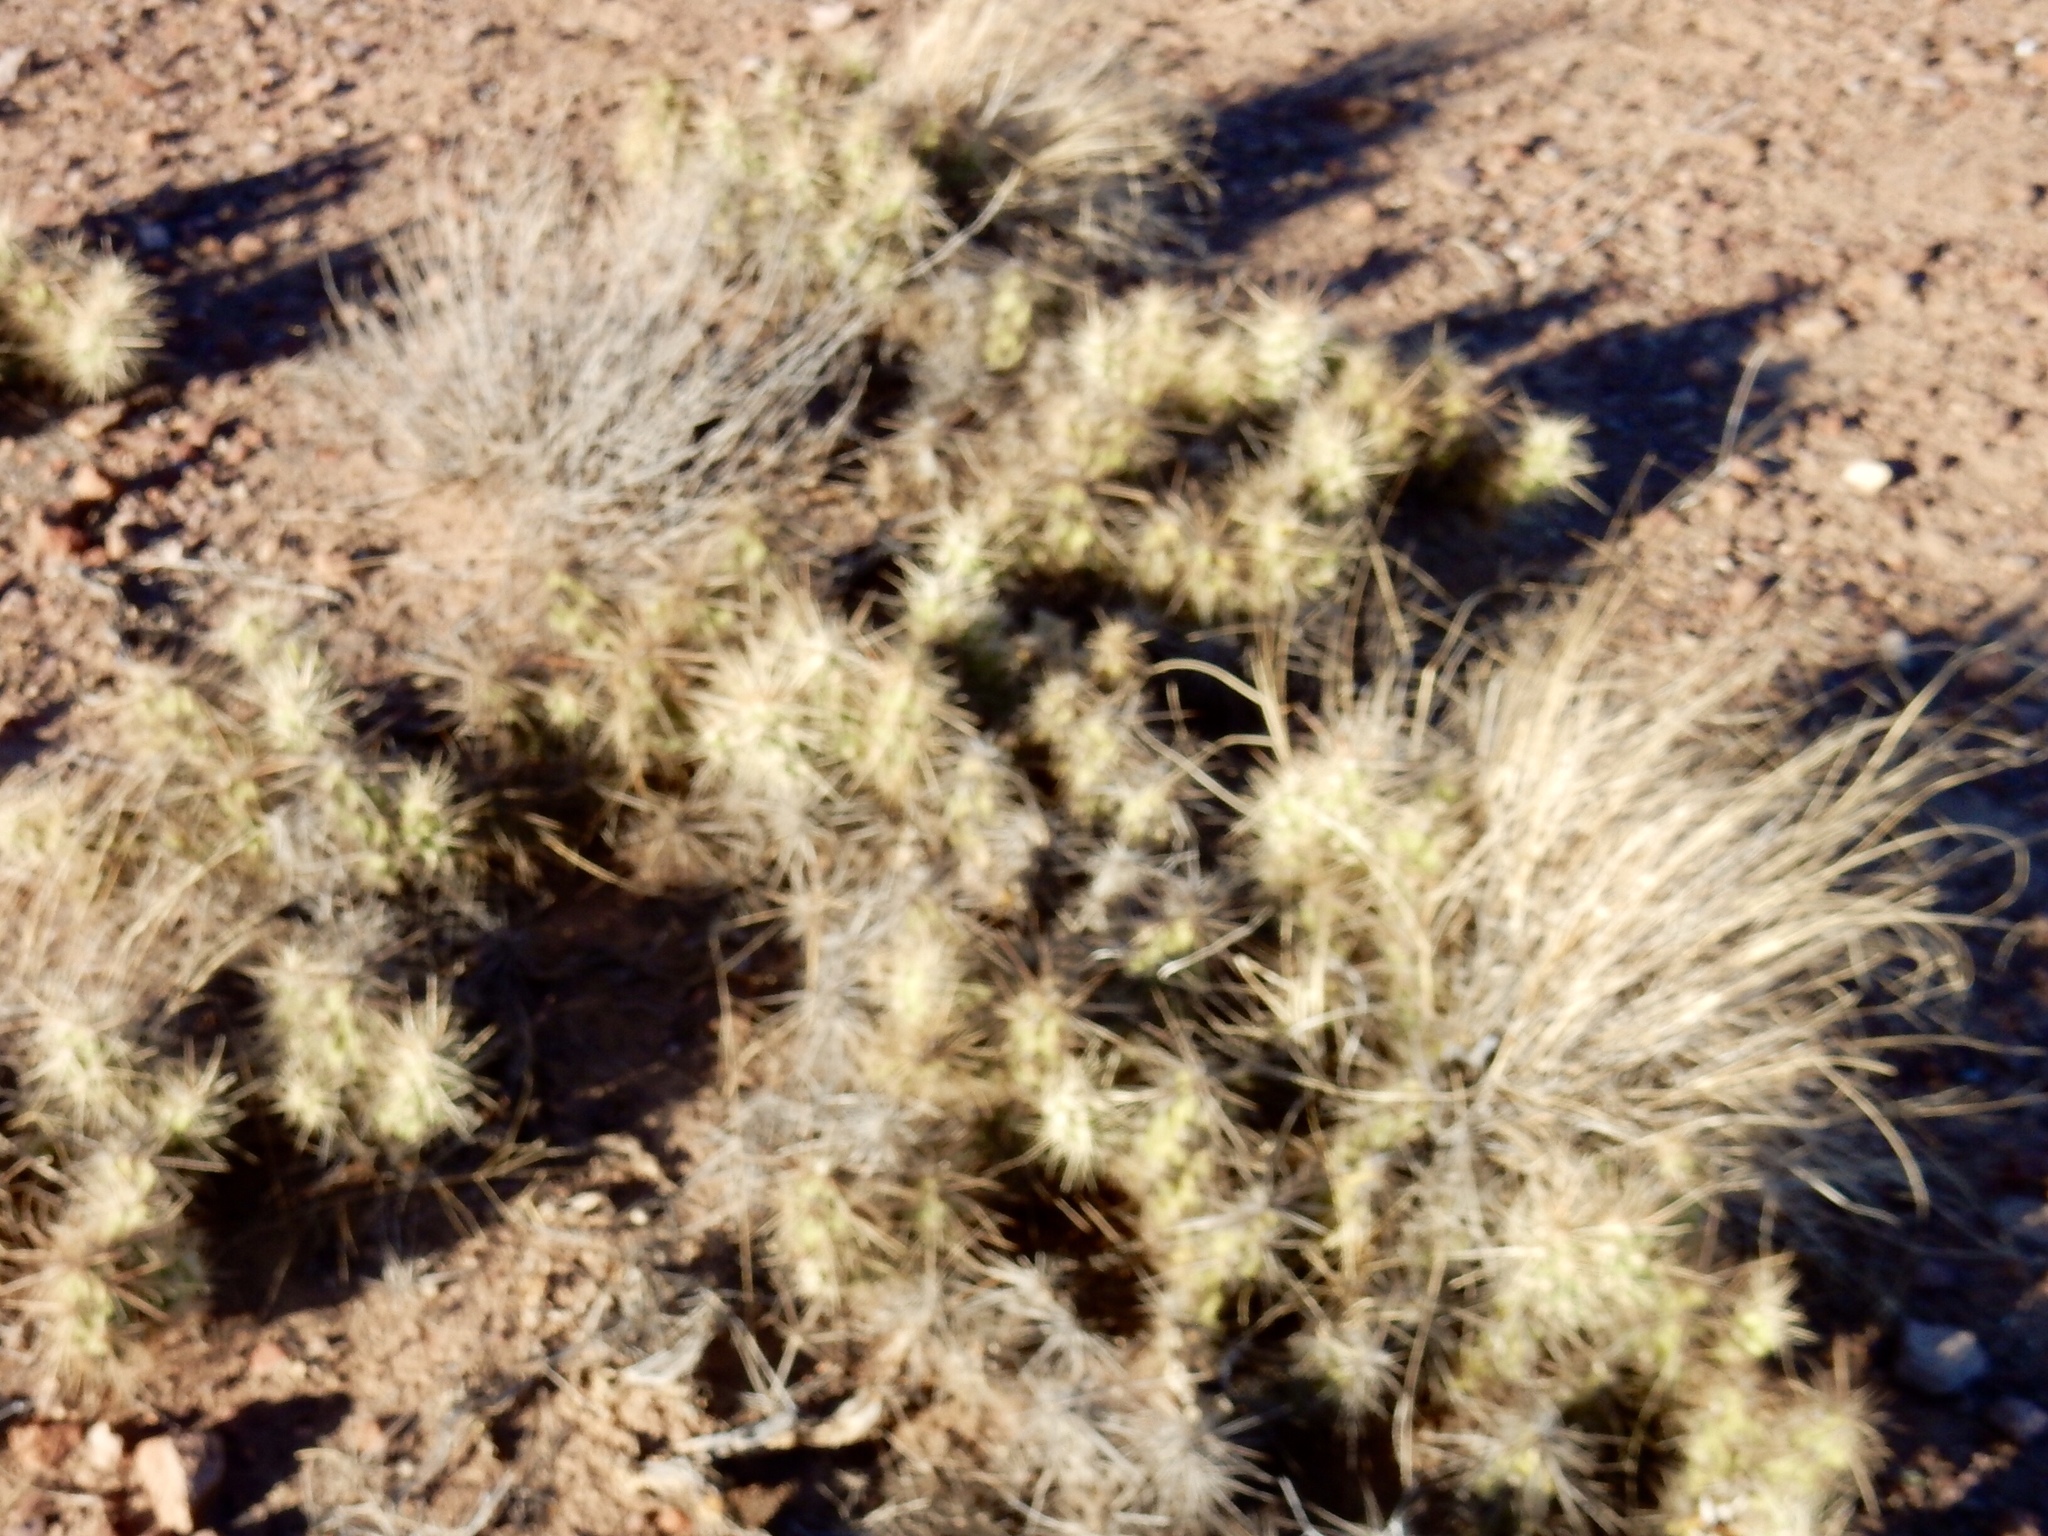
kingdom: Plantae
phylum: Tracheophyta
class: Magnoliopsida
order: Caryophyllales
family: Cactaceae
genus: Grusonia
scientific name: Grusonia emoryi
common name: Stanly's club cholla
